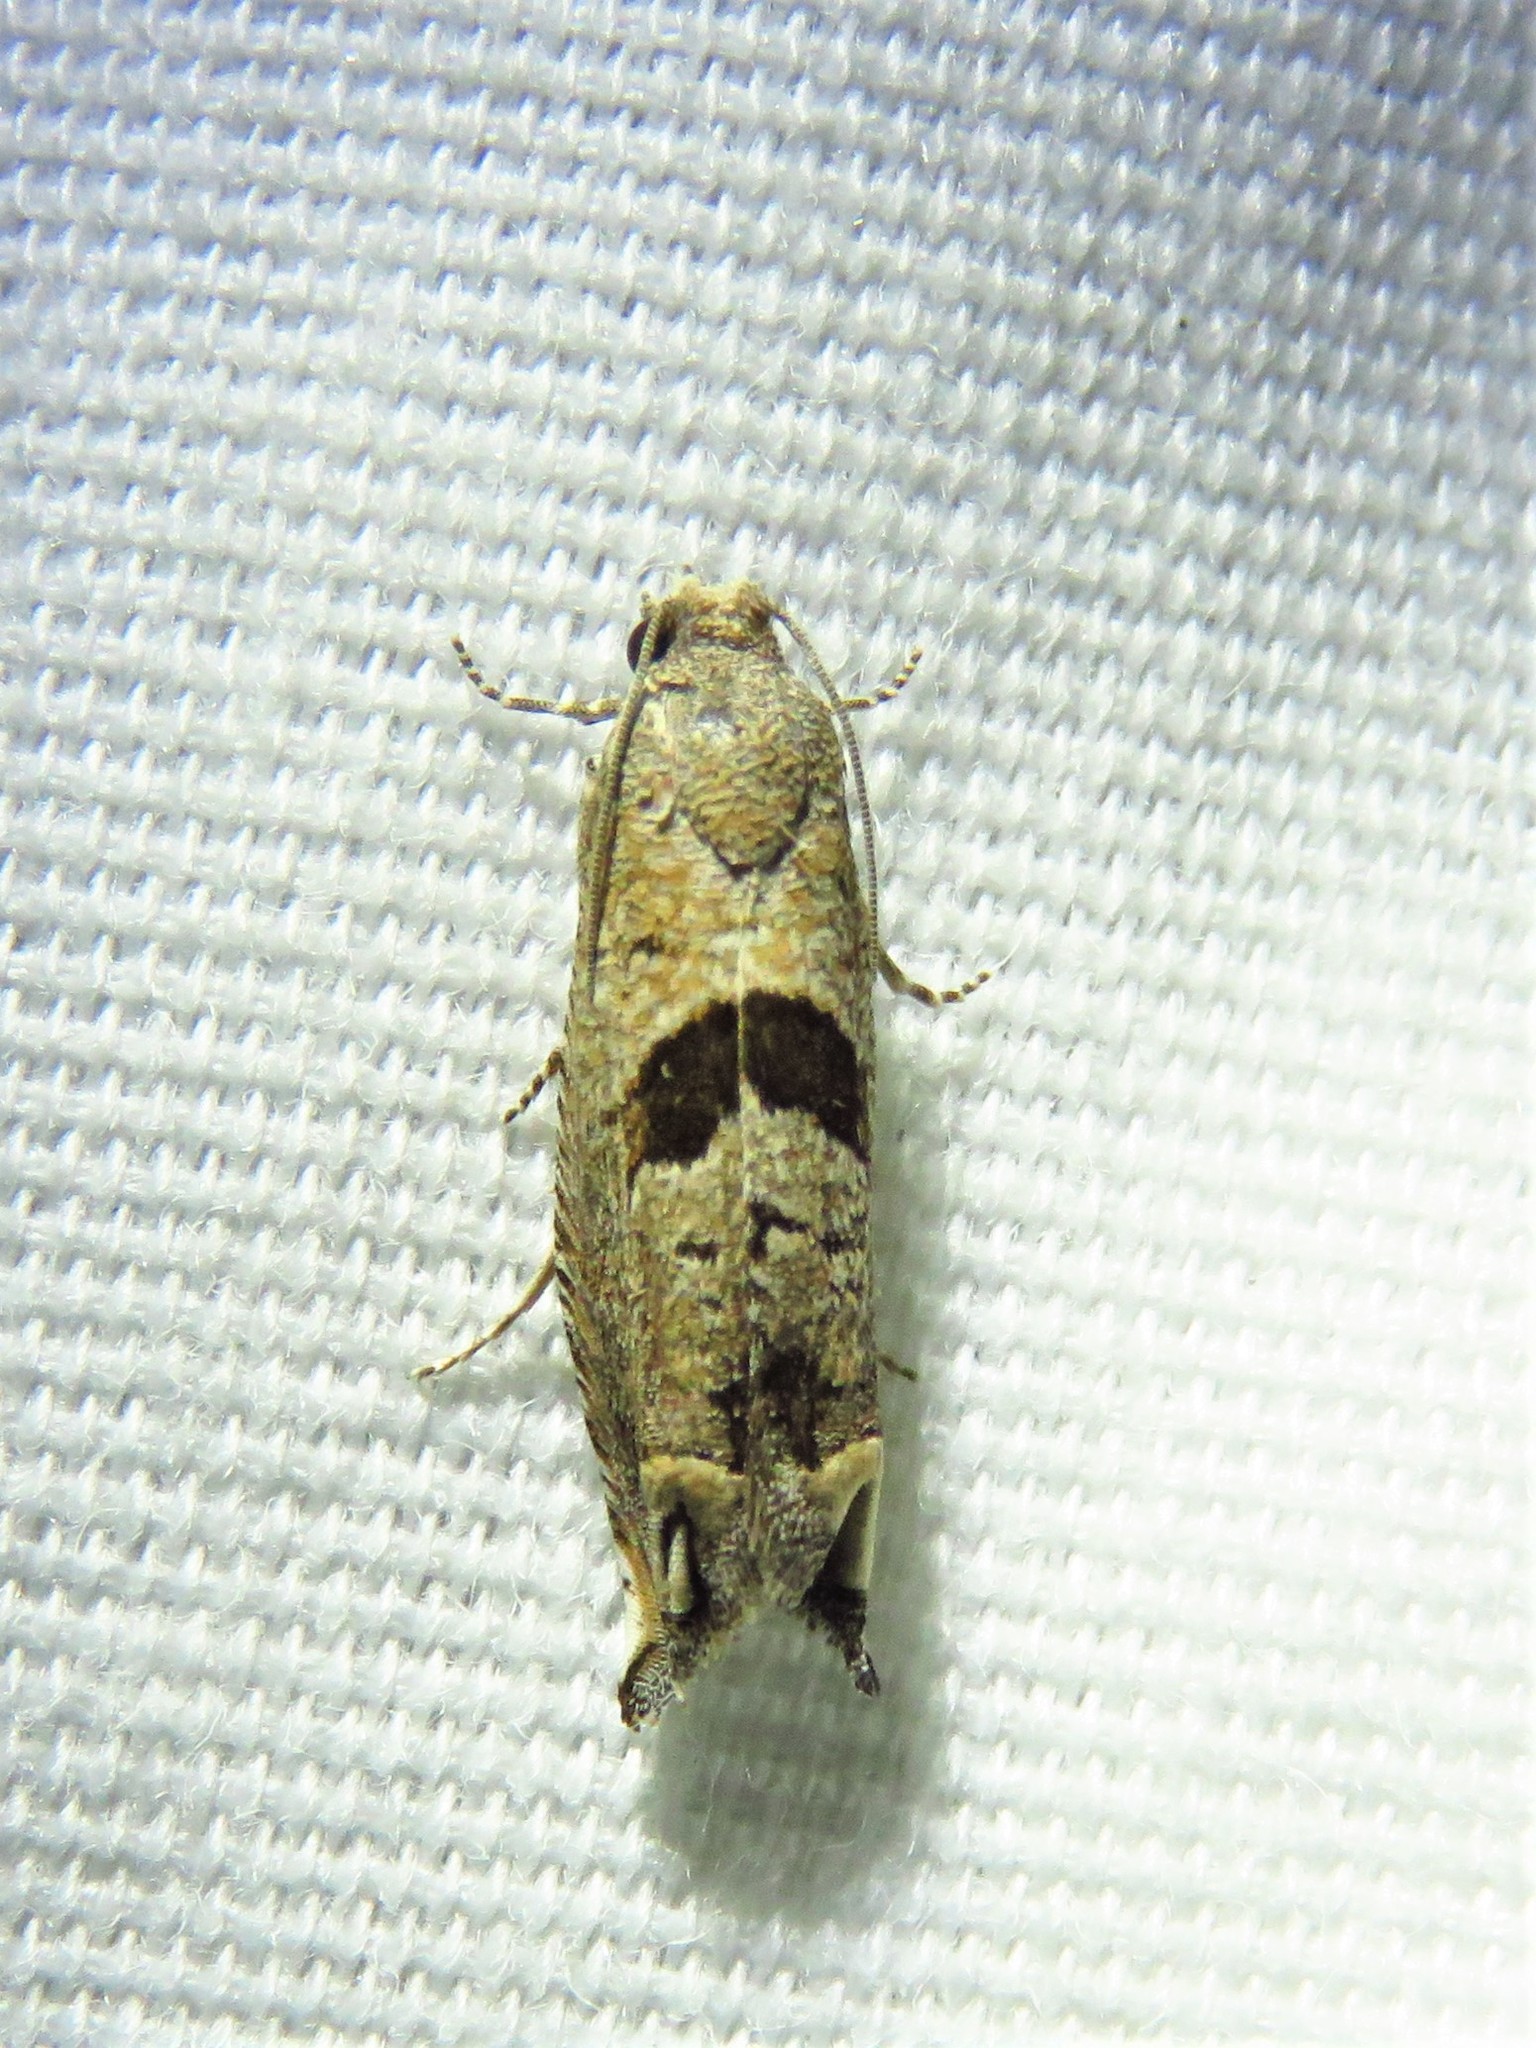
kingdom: Animalia
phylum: Arthropoda
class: Insecta
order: Lepidoptera
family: Tortricidae
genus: Suleima
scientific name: Suleima helianthana
